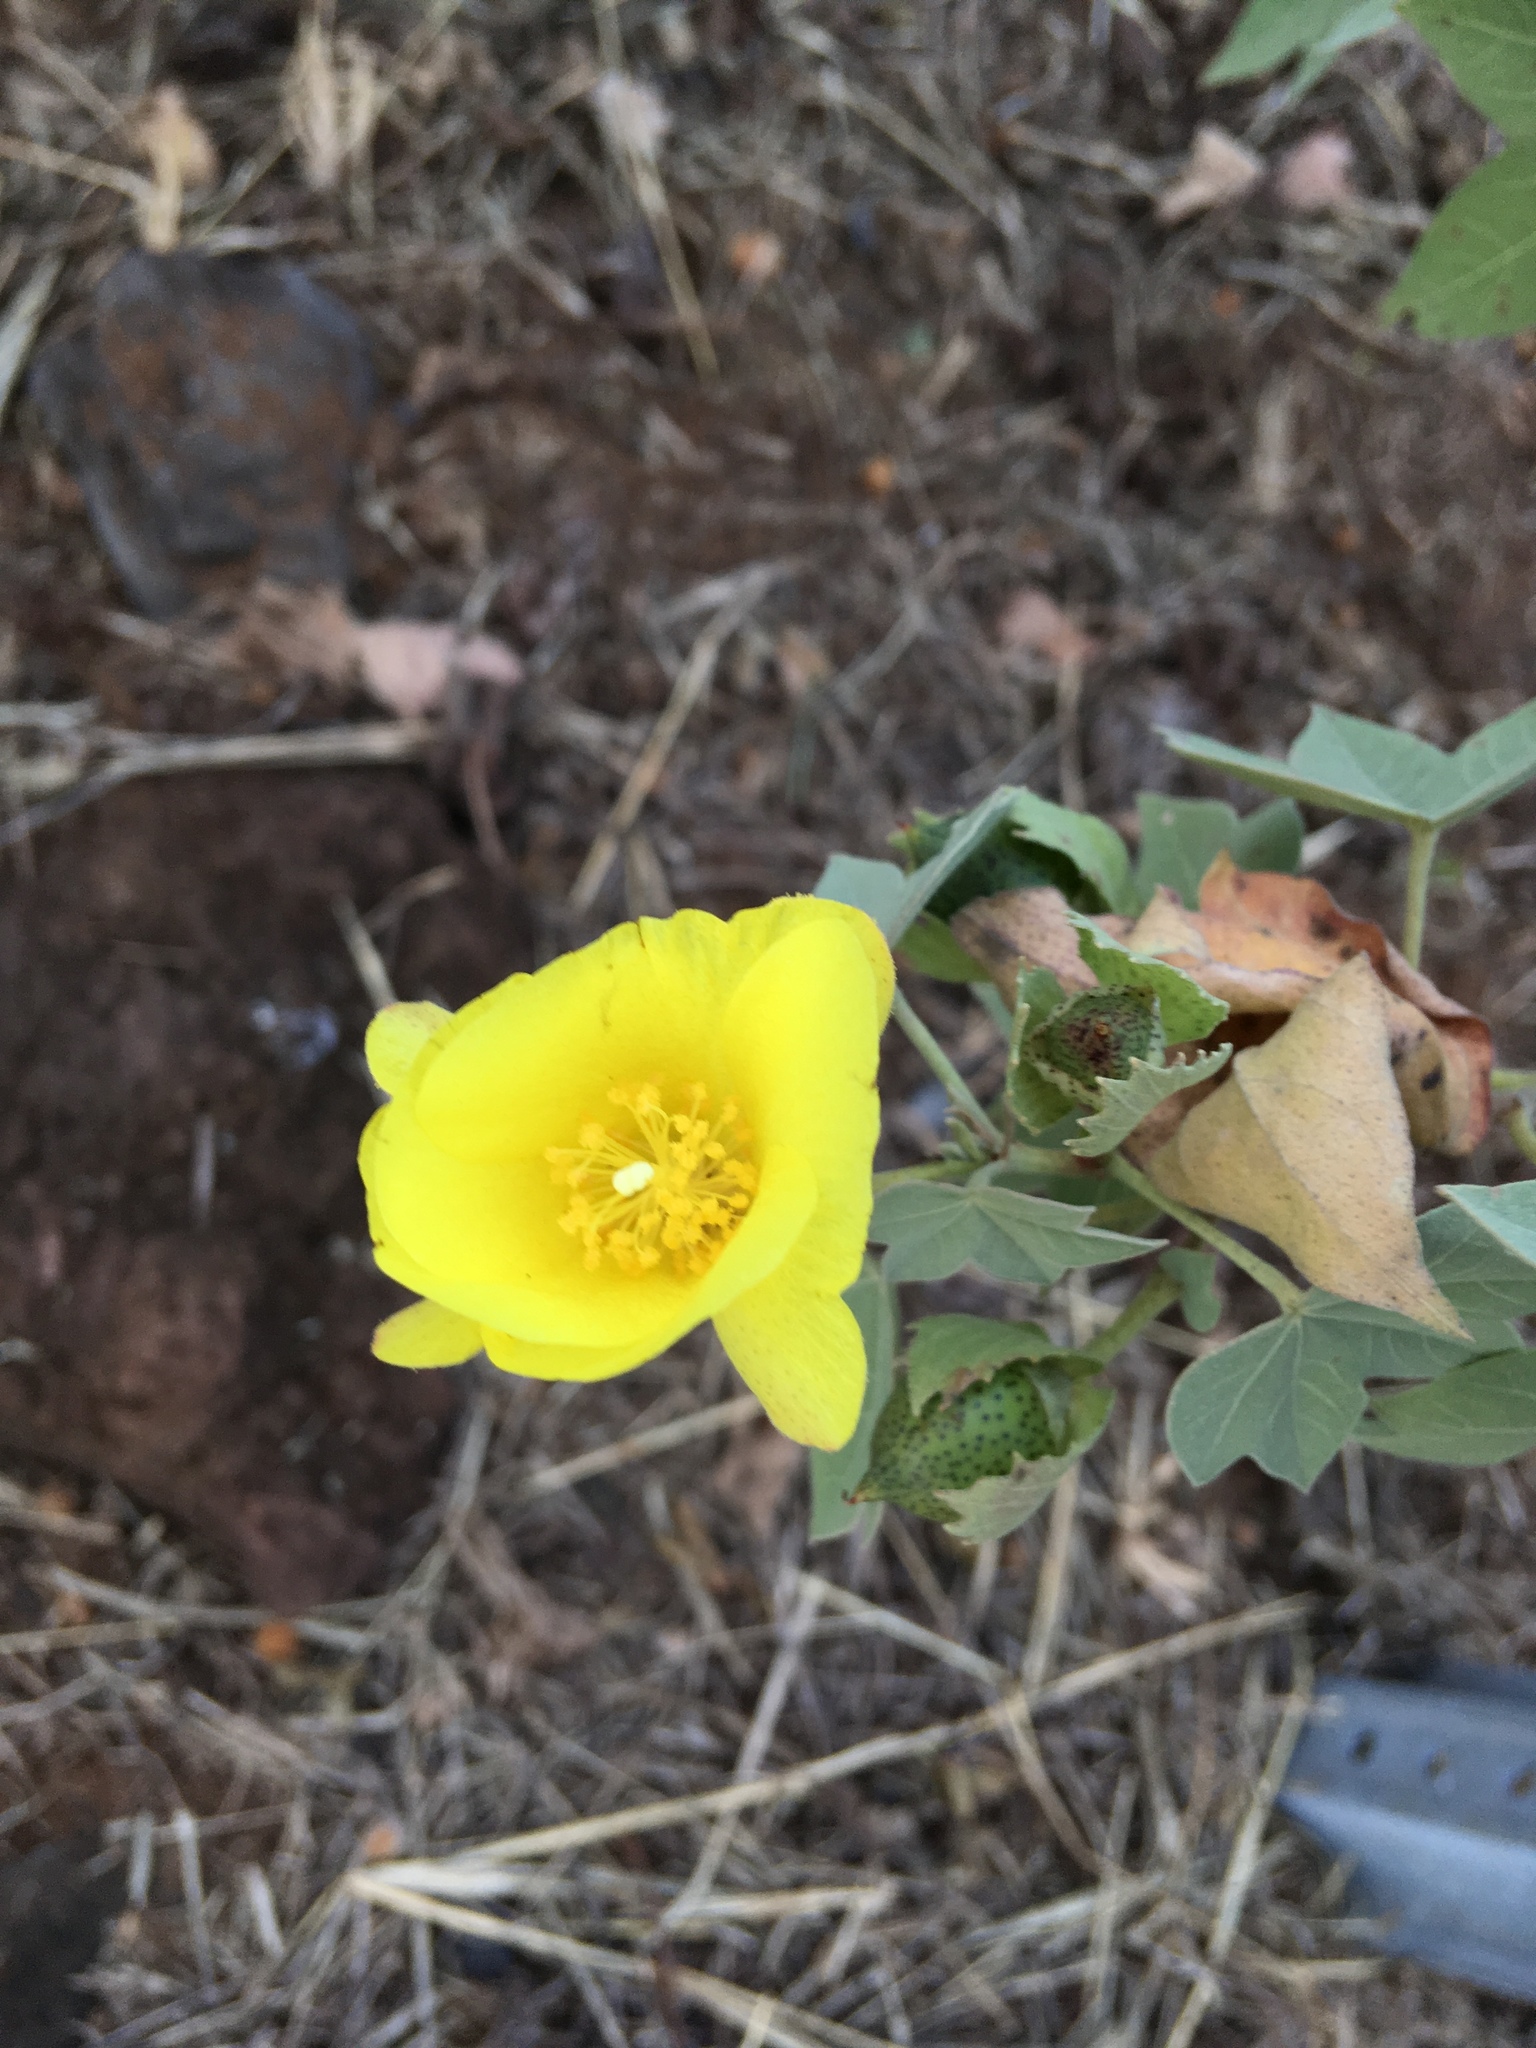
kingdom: Plantae
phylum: Tracheophyta
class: Magnoliopsida
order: Malvales
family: Malvaceae
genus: Gossypium
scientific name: Gossypium tomentosum
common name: Hawaiian cotton
